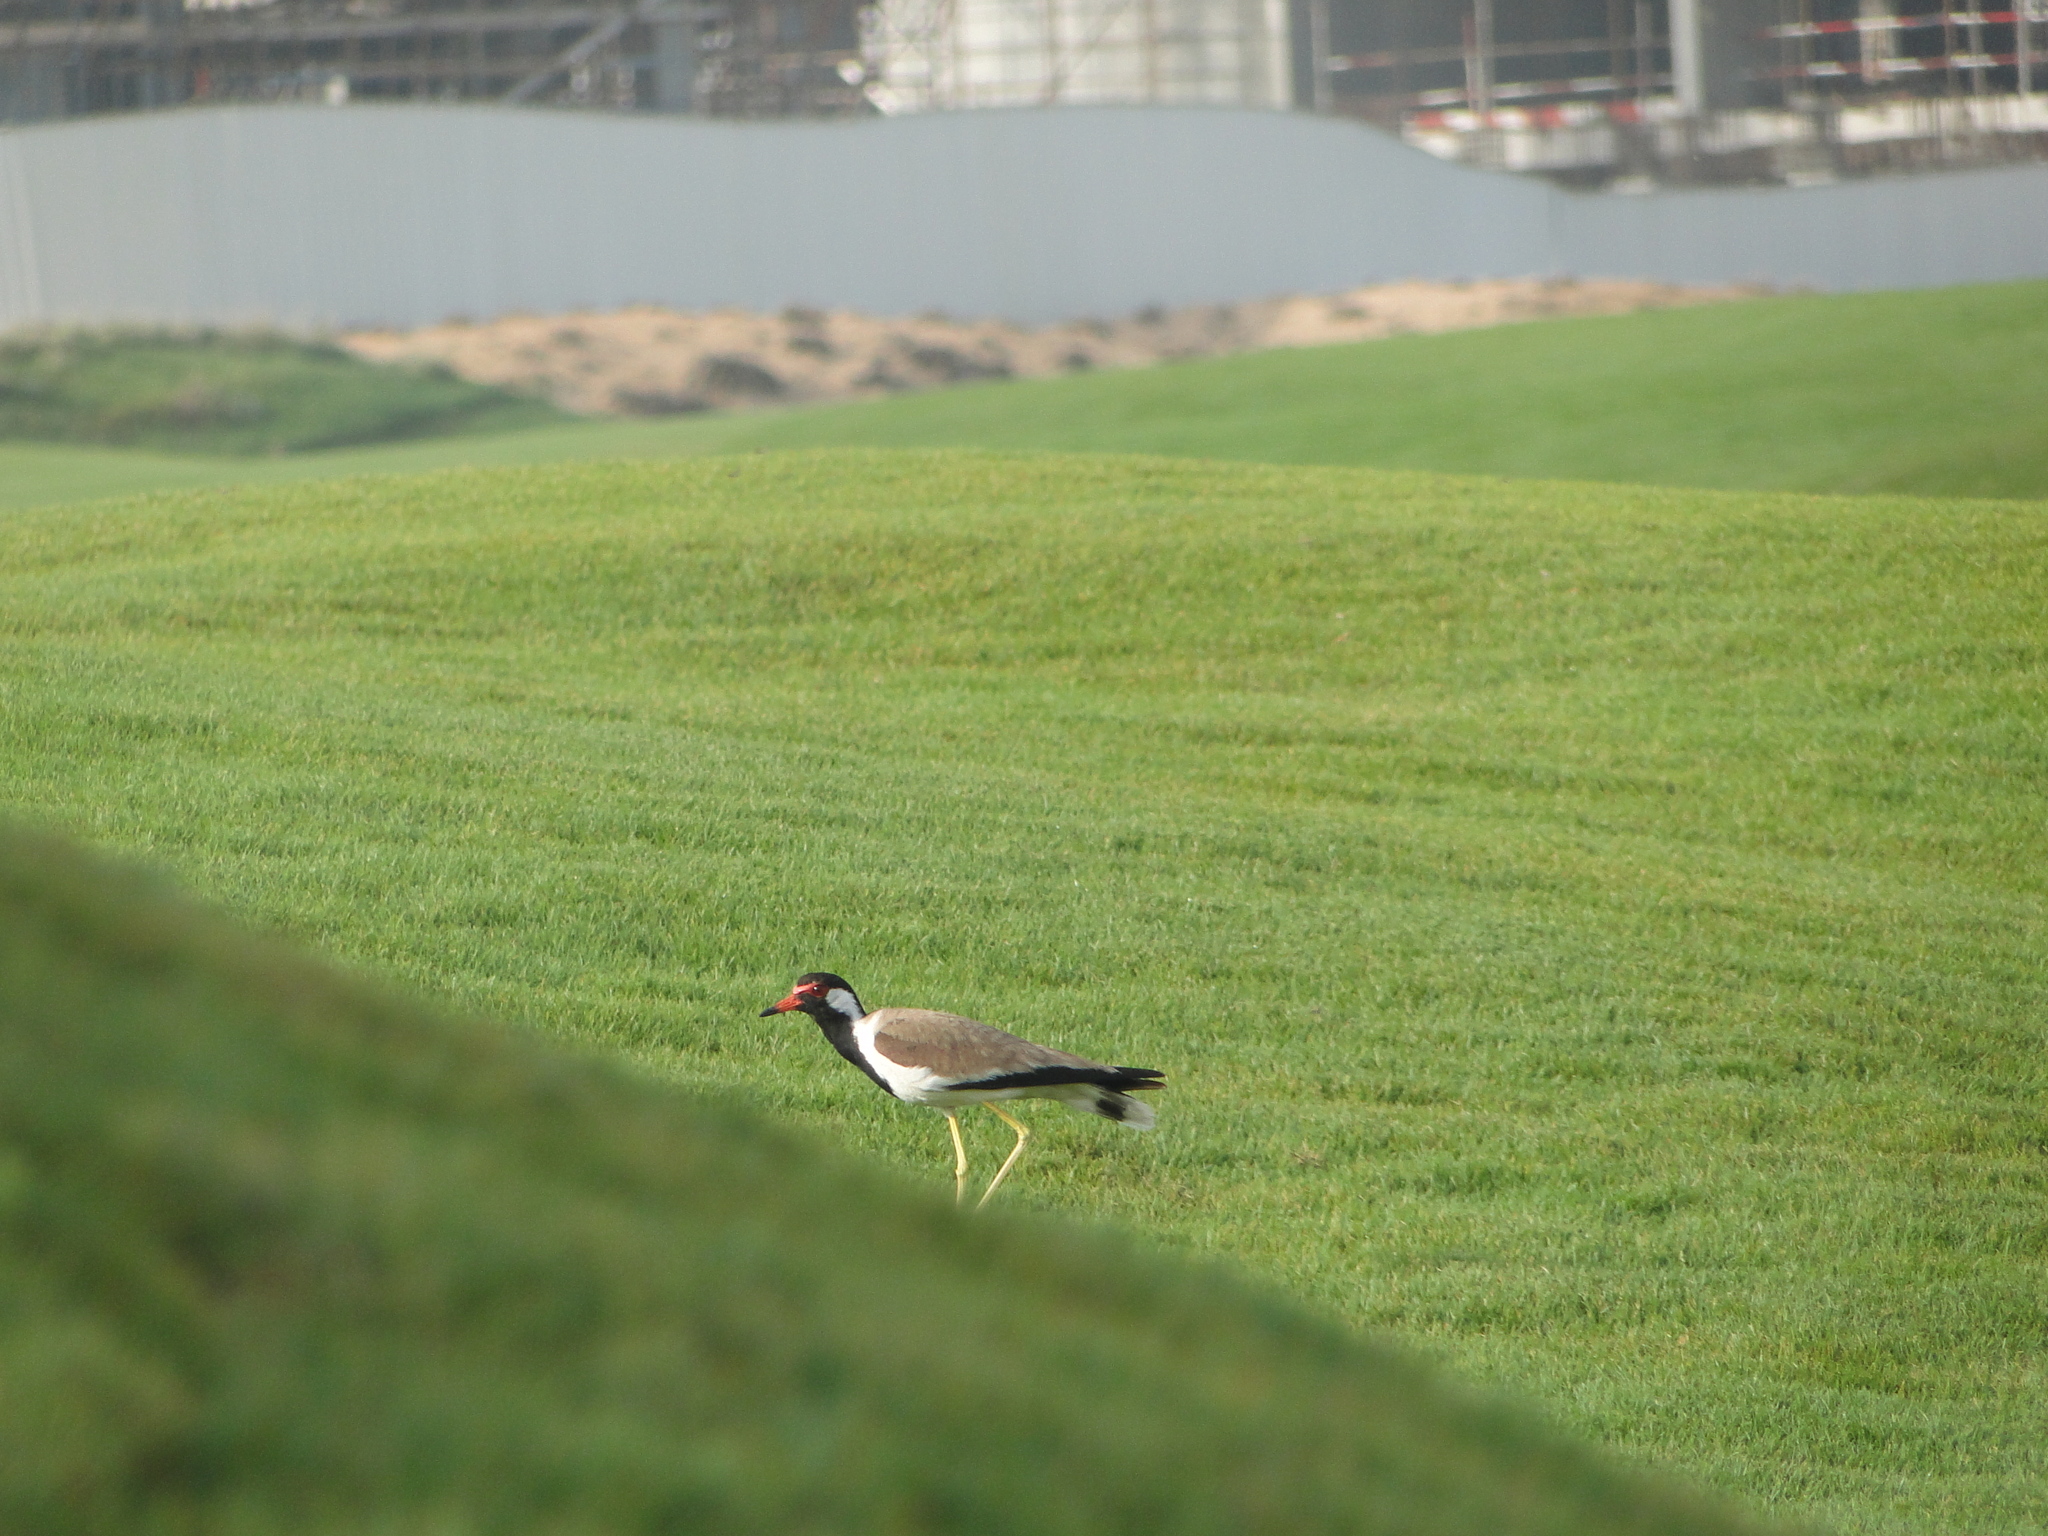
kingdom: Animalia
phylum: Chordata
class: Aves
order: Charadriiformes
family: Charadriidae
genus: Vanellus
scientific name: Vanellus indicus
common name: Red-wattled lapwing
